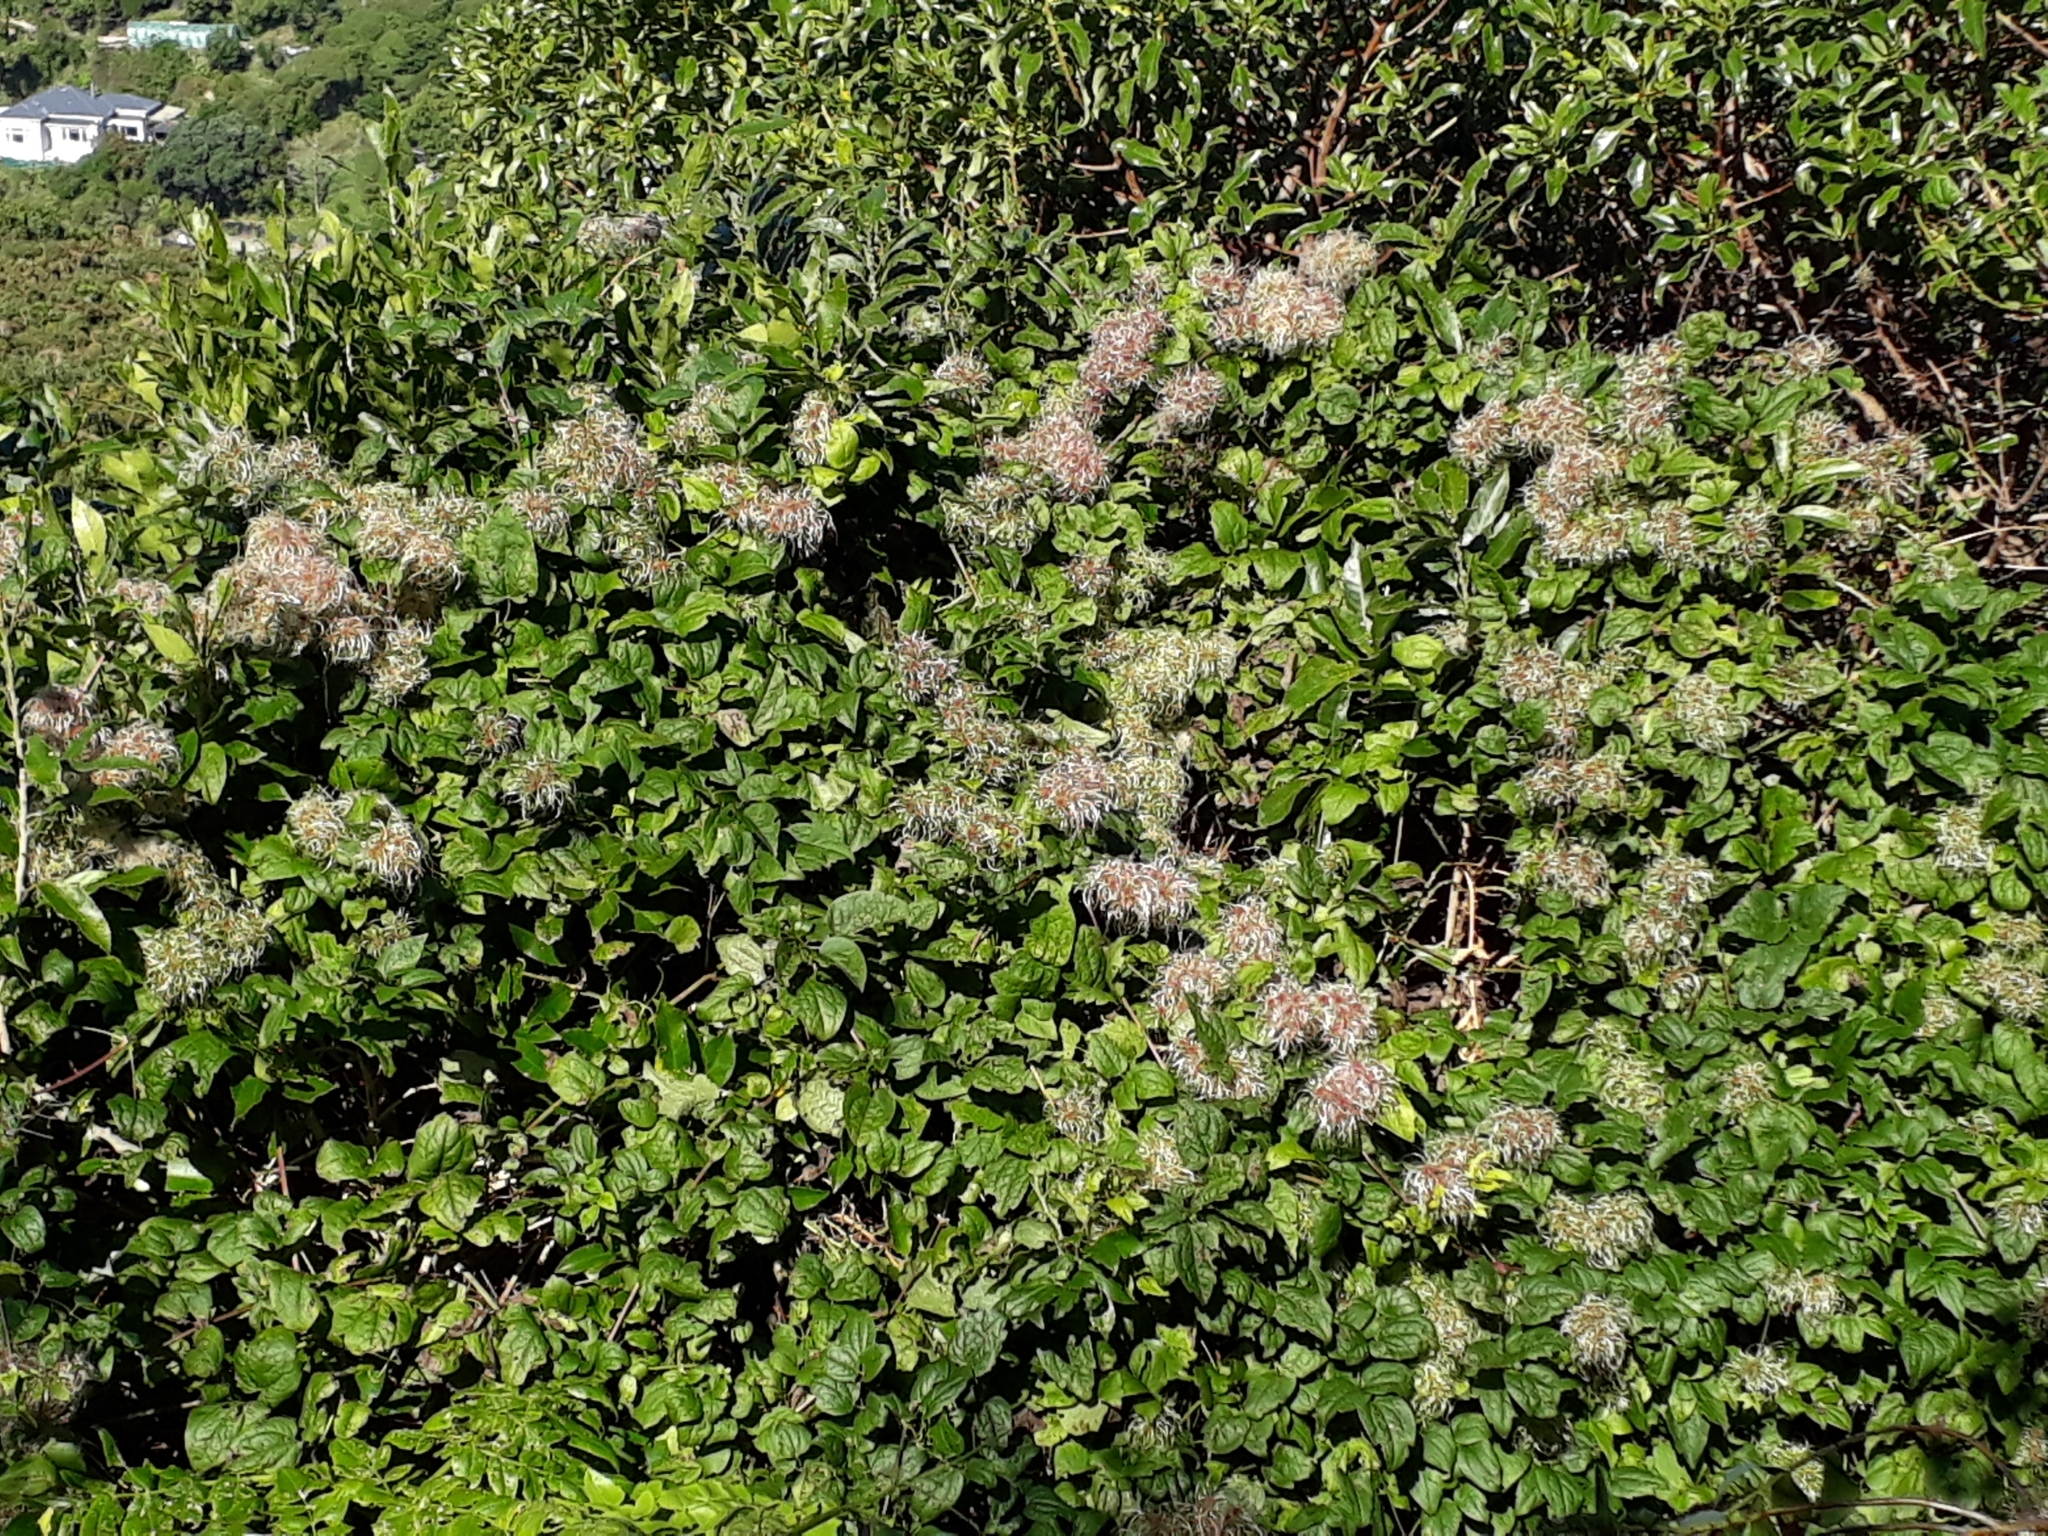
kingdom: Plantae
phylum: Tracheophyta
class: Magnoliopsida
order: Ranunculales
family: Ranunculaceae
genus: Clematis
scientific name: Clematis vitalba
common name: Evergreen clematis
